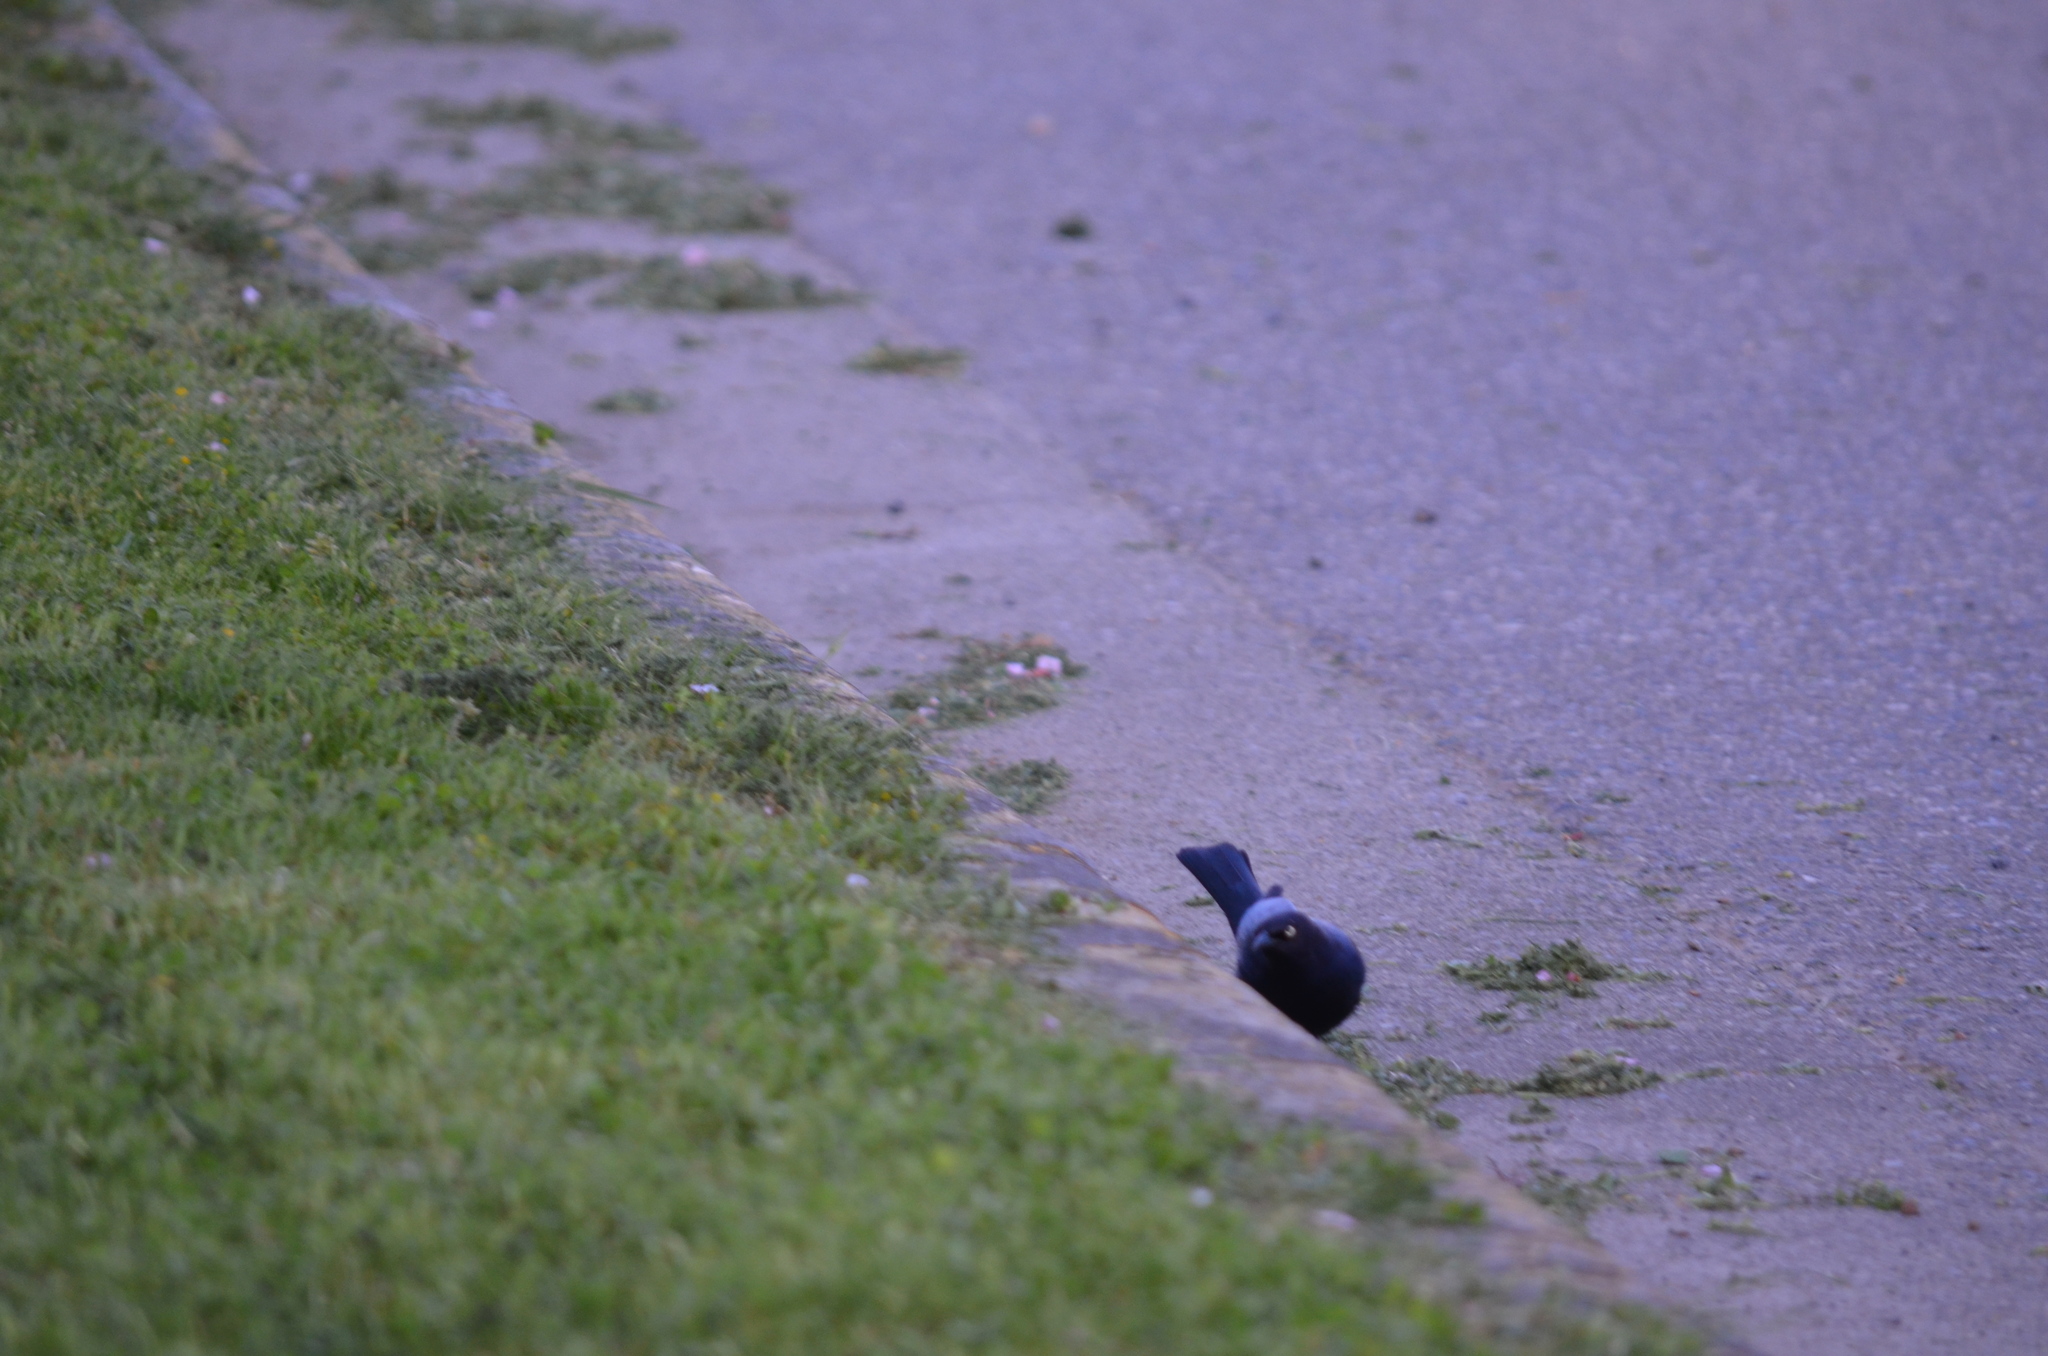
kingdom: Animalia
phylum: Chordata
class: Aves
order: Passeriformes
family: Icteridae
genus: Euphagus
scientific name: Euphagus cyanocephalus
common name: Brewer's blackbird
